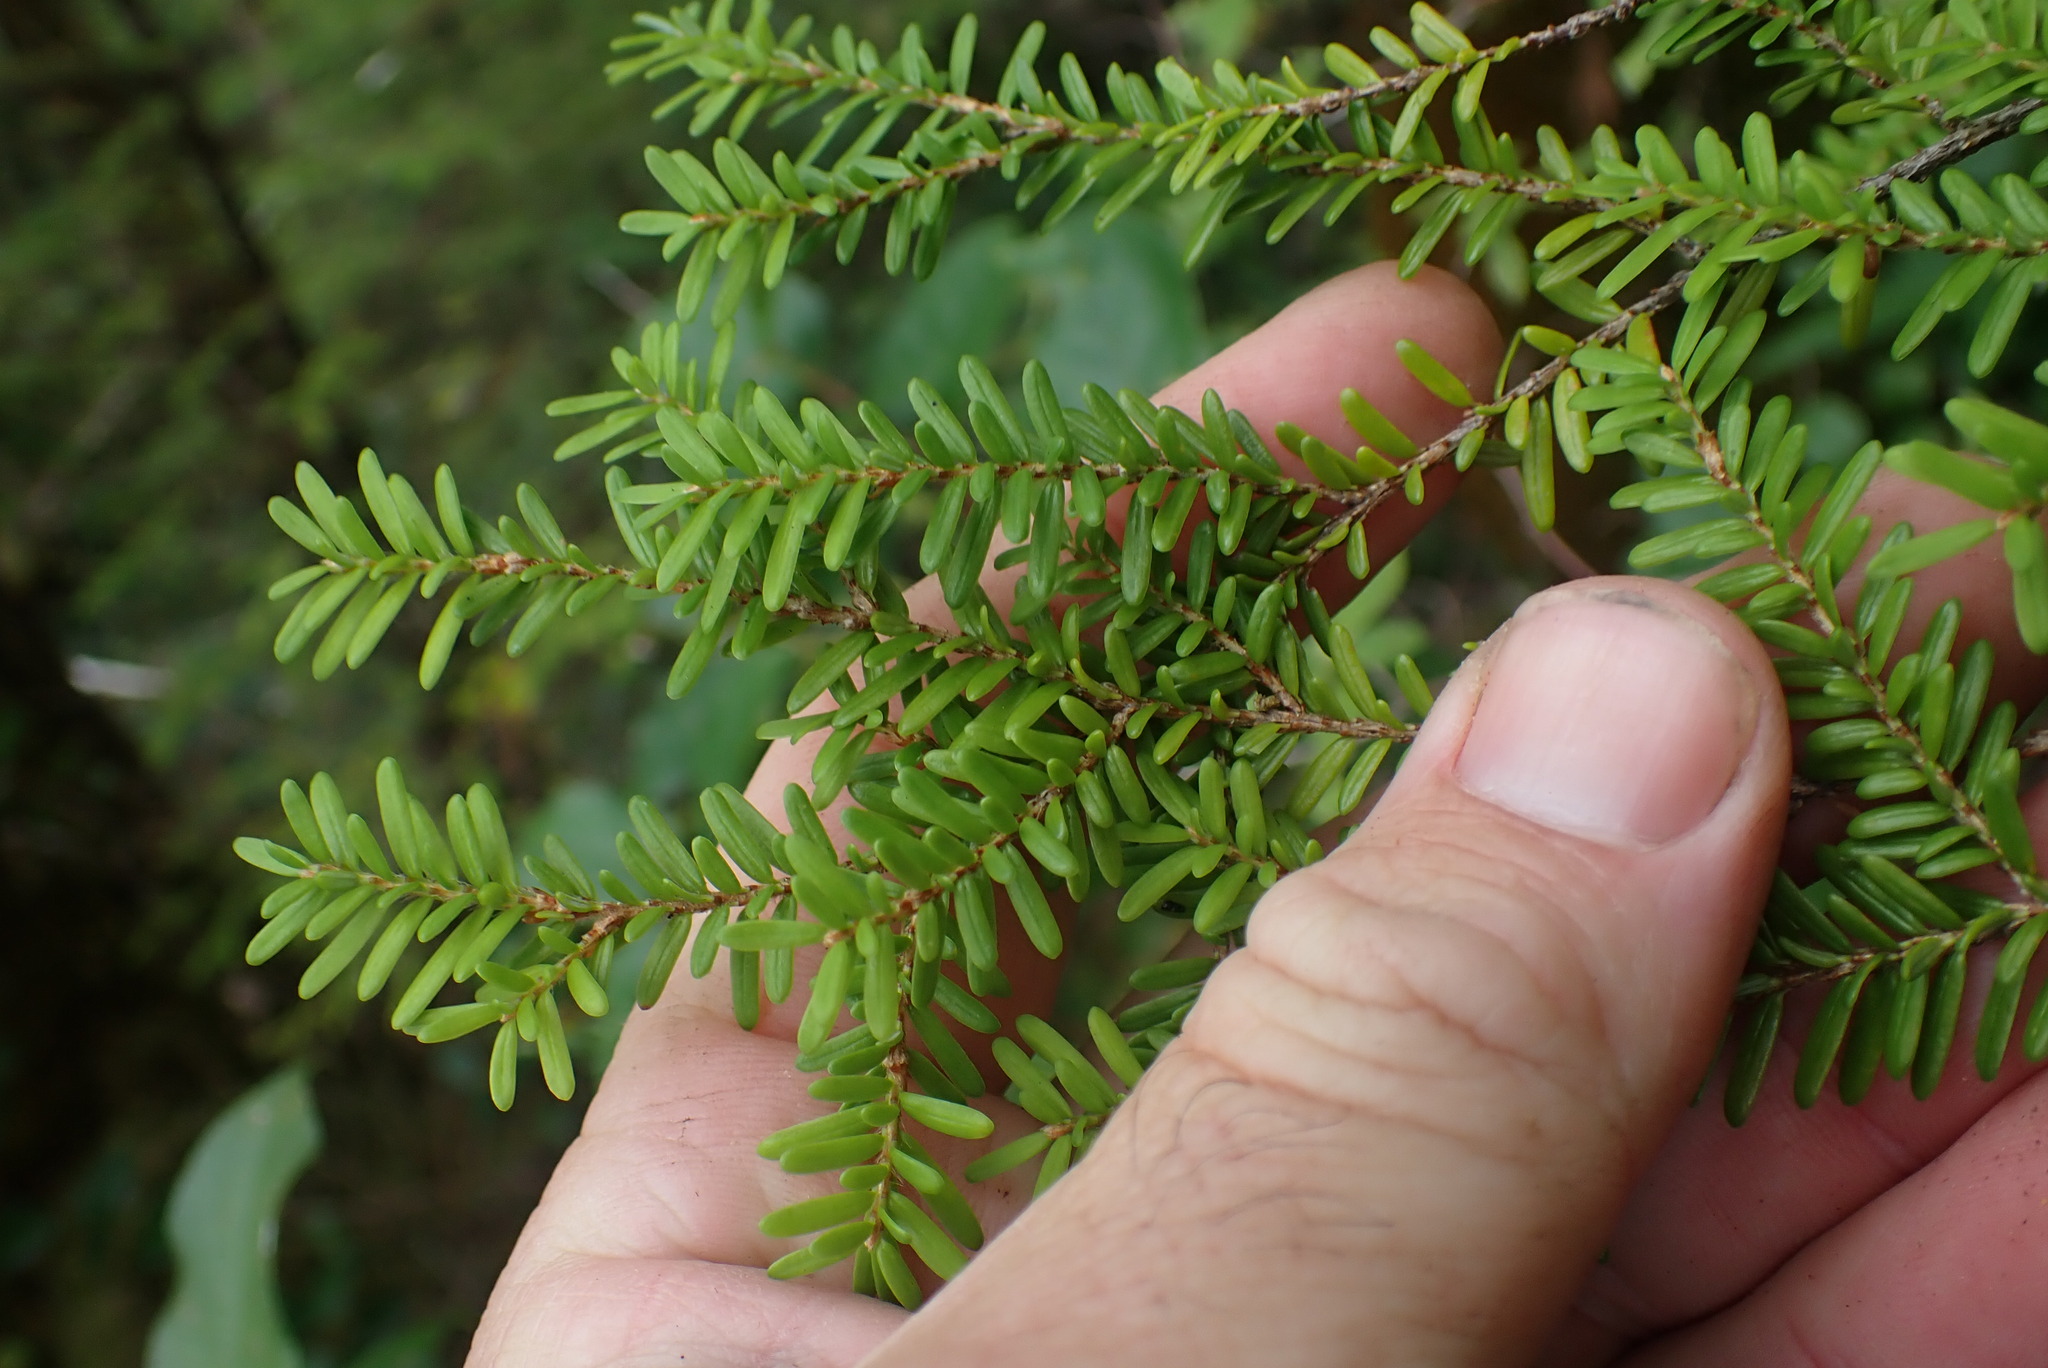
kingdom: Plantae
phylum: Tracheophyta
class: Pinopsida
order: Pinales
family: Pinaceae
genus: Tsuga
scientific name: Tsuga heterophylla
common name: Western hemlock
